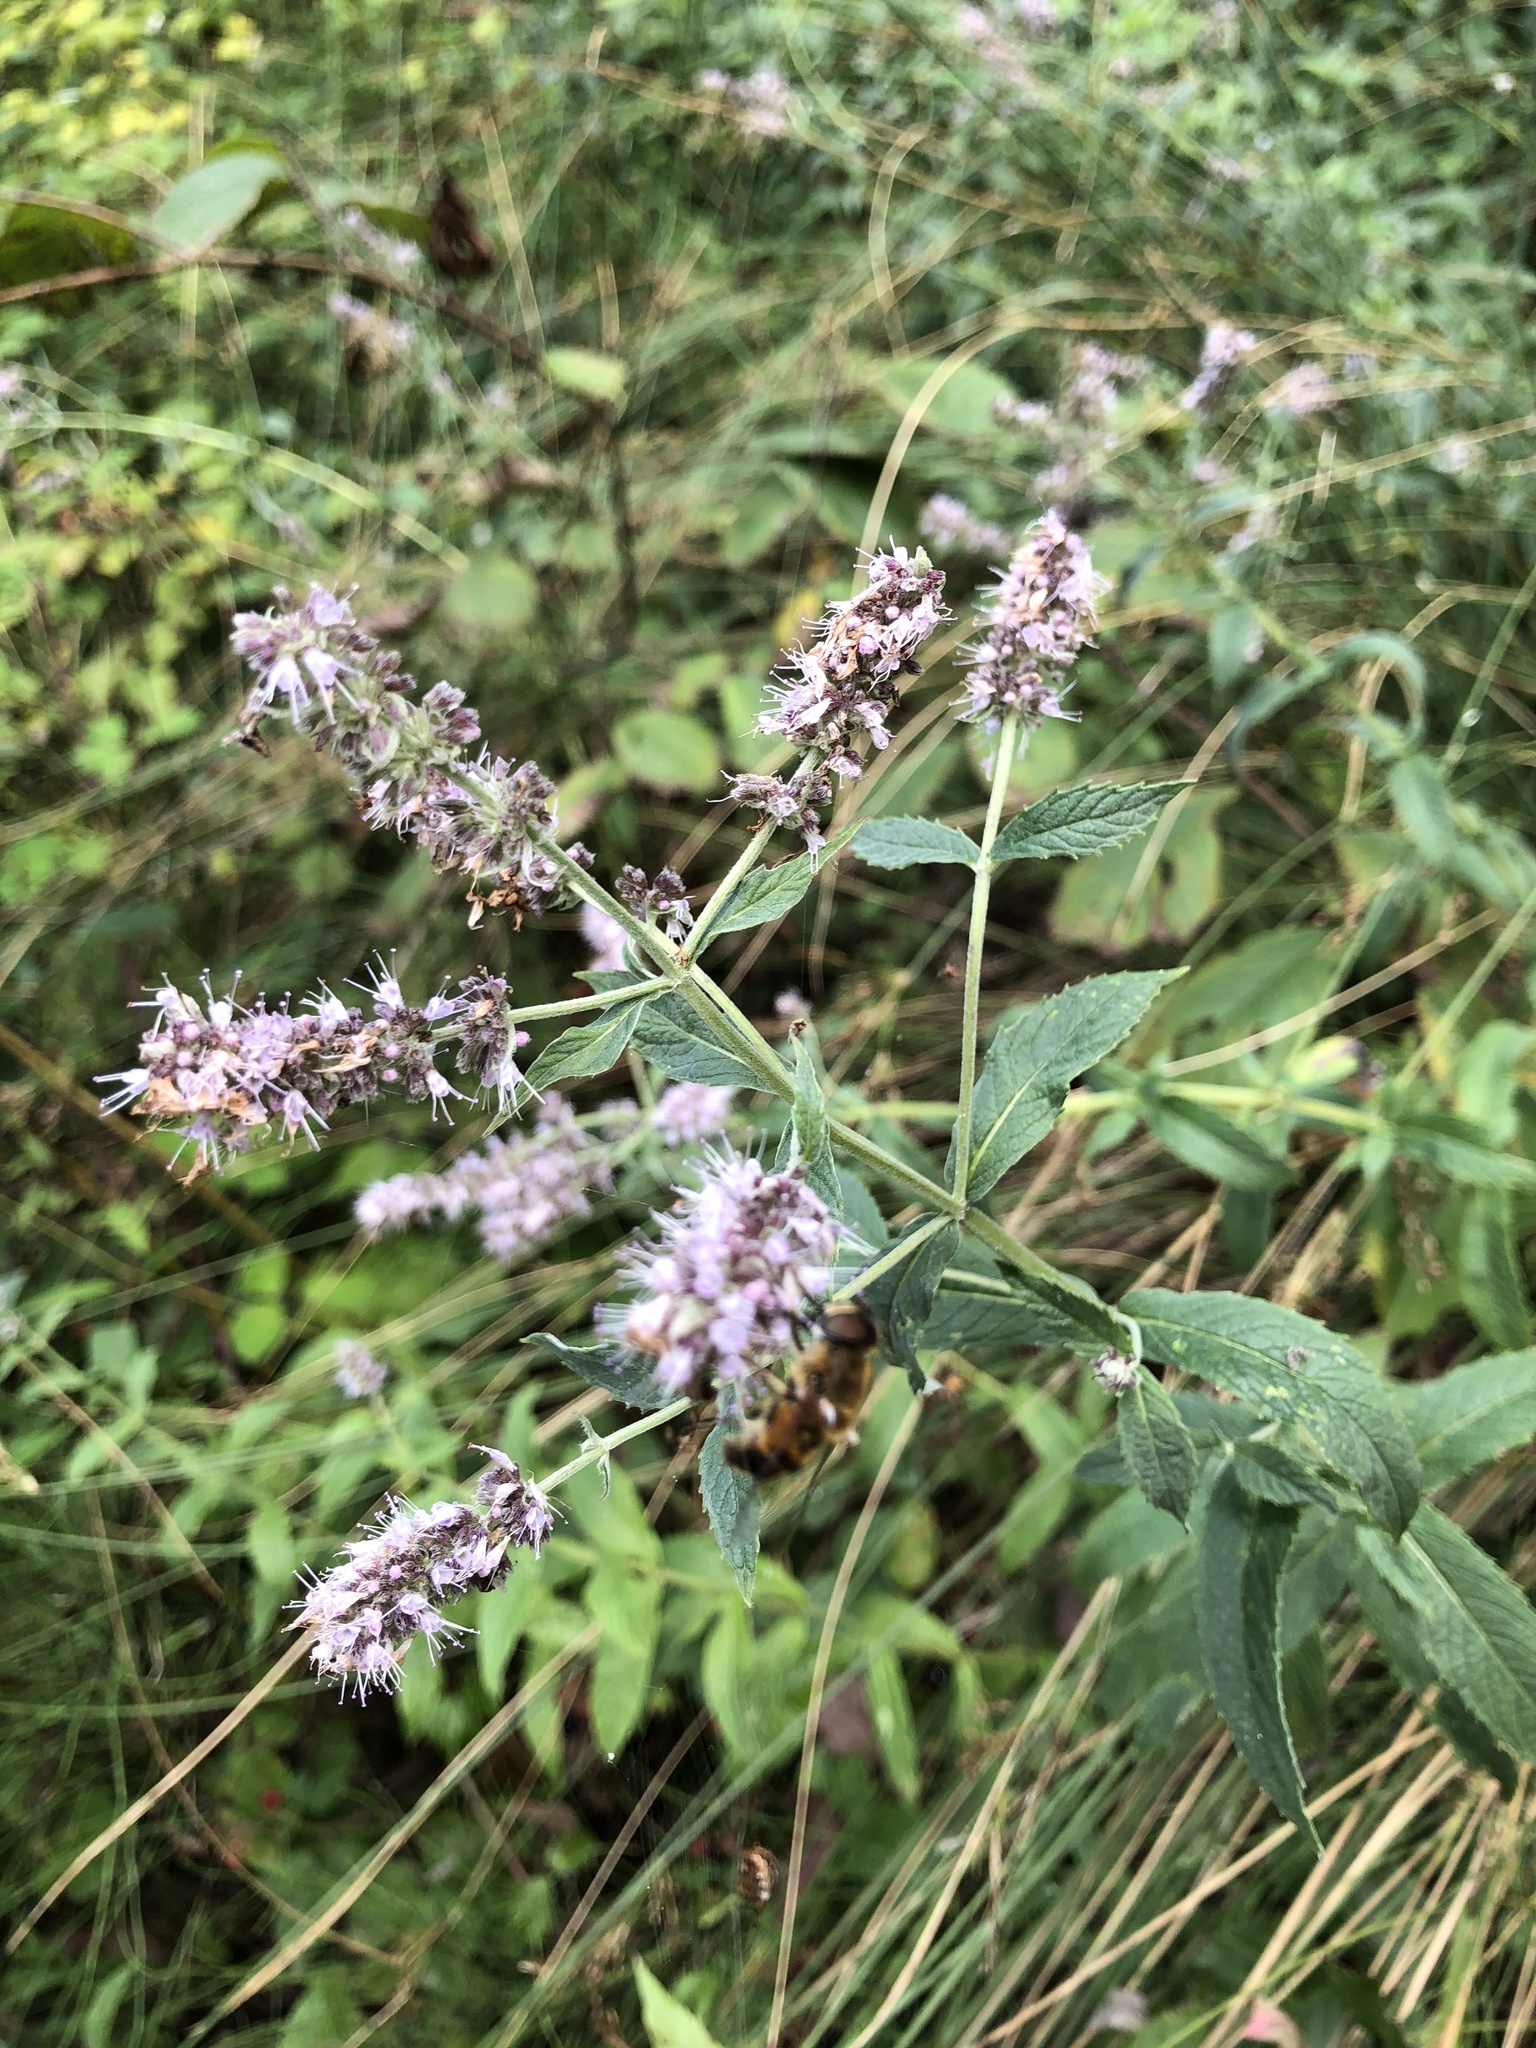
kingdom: Plantae
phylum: Tracheophyta
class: Magnoliopsida
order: Lamiales
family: Lamiaceae
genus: Mentha
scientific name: Mentha longifolia
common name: Horse mint
